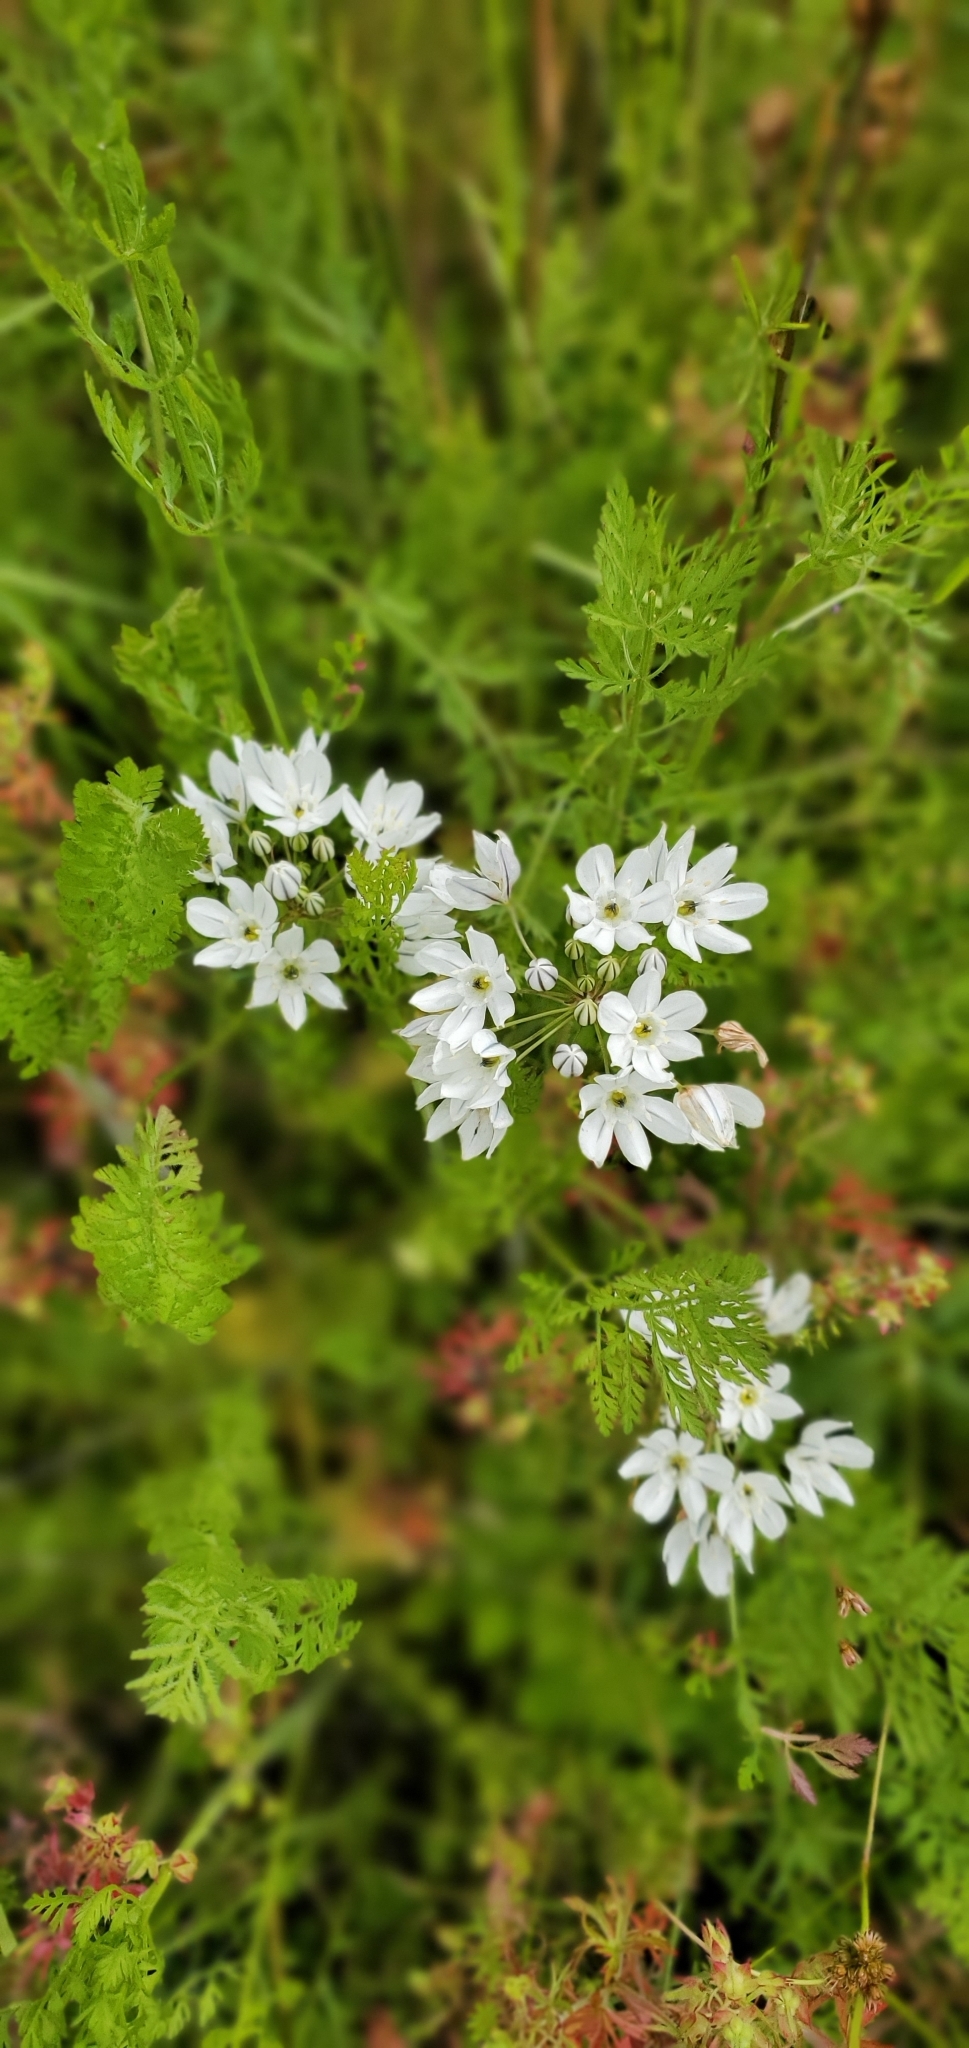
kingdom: Plantae
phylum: Tracheophyta
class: Liliopsida
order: Asparagales
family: Asparagaceae
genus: Triteleia
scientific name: Triteleia hyacinthina
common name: White brodiaea
